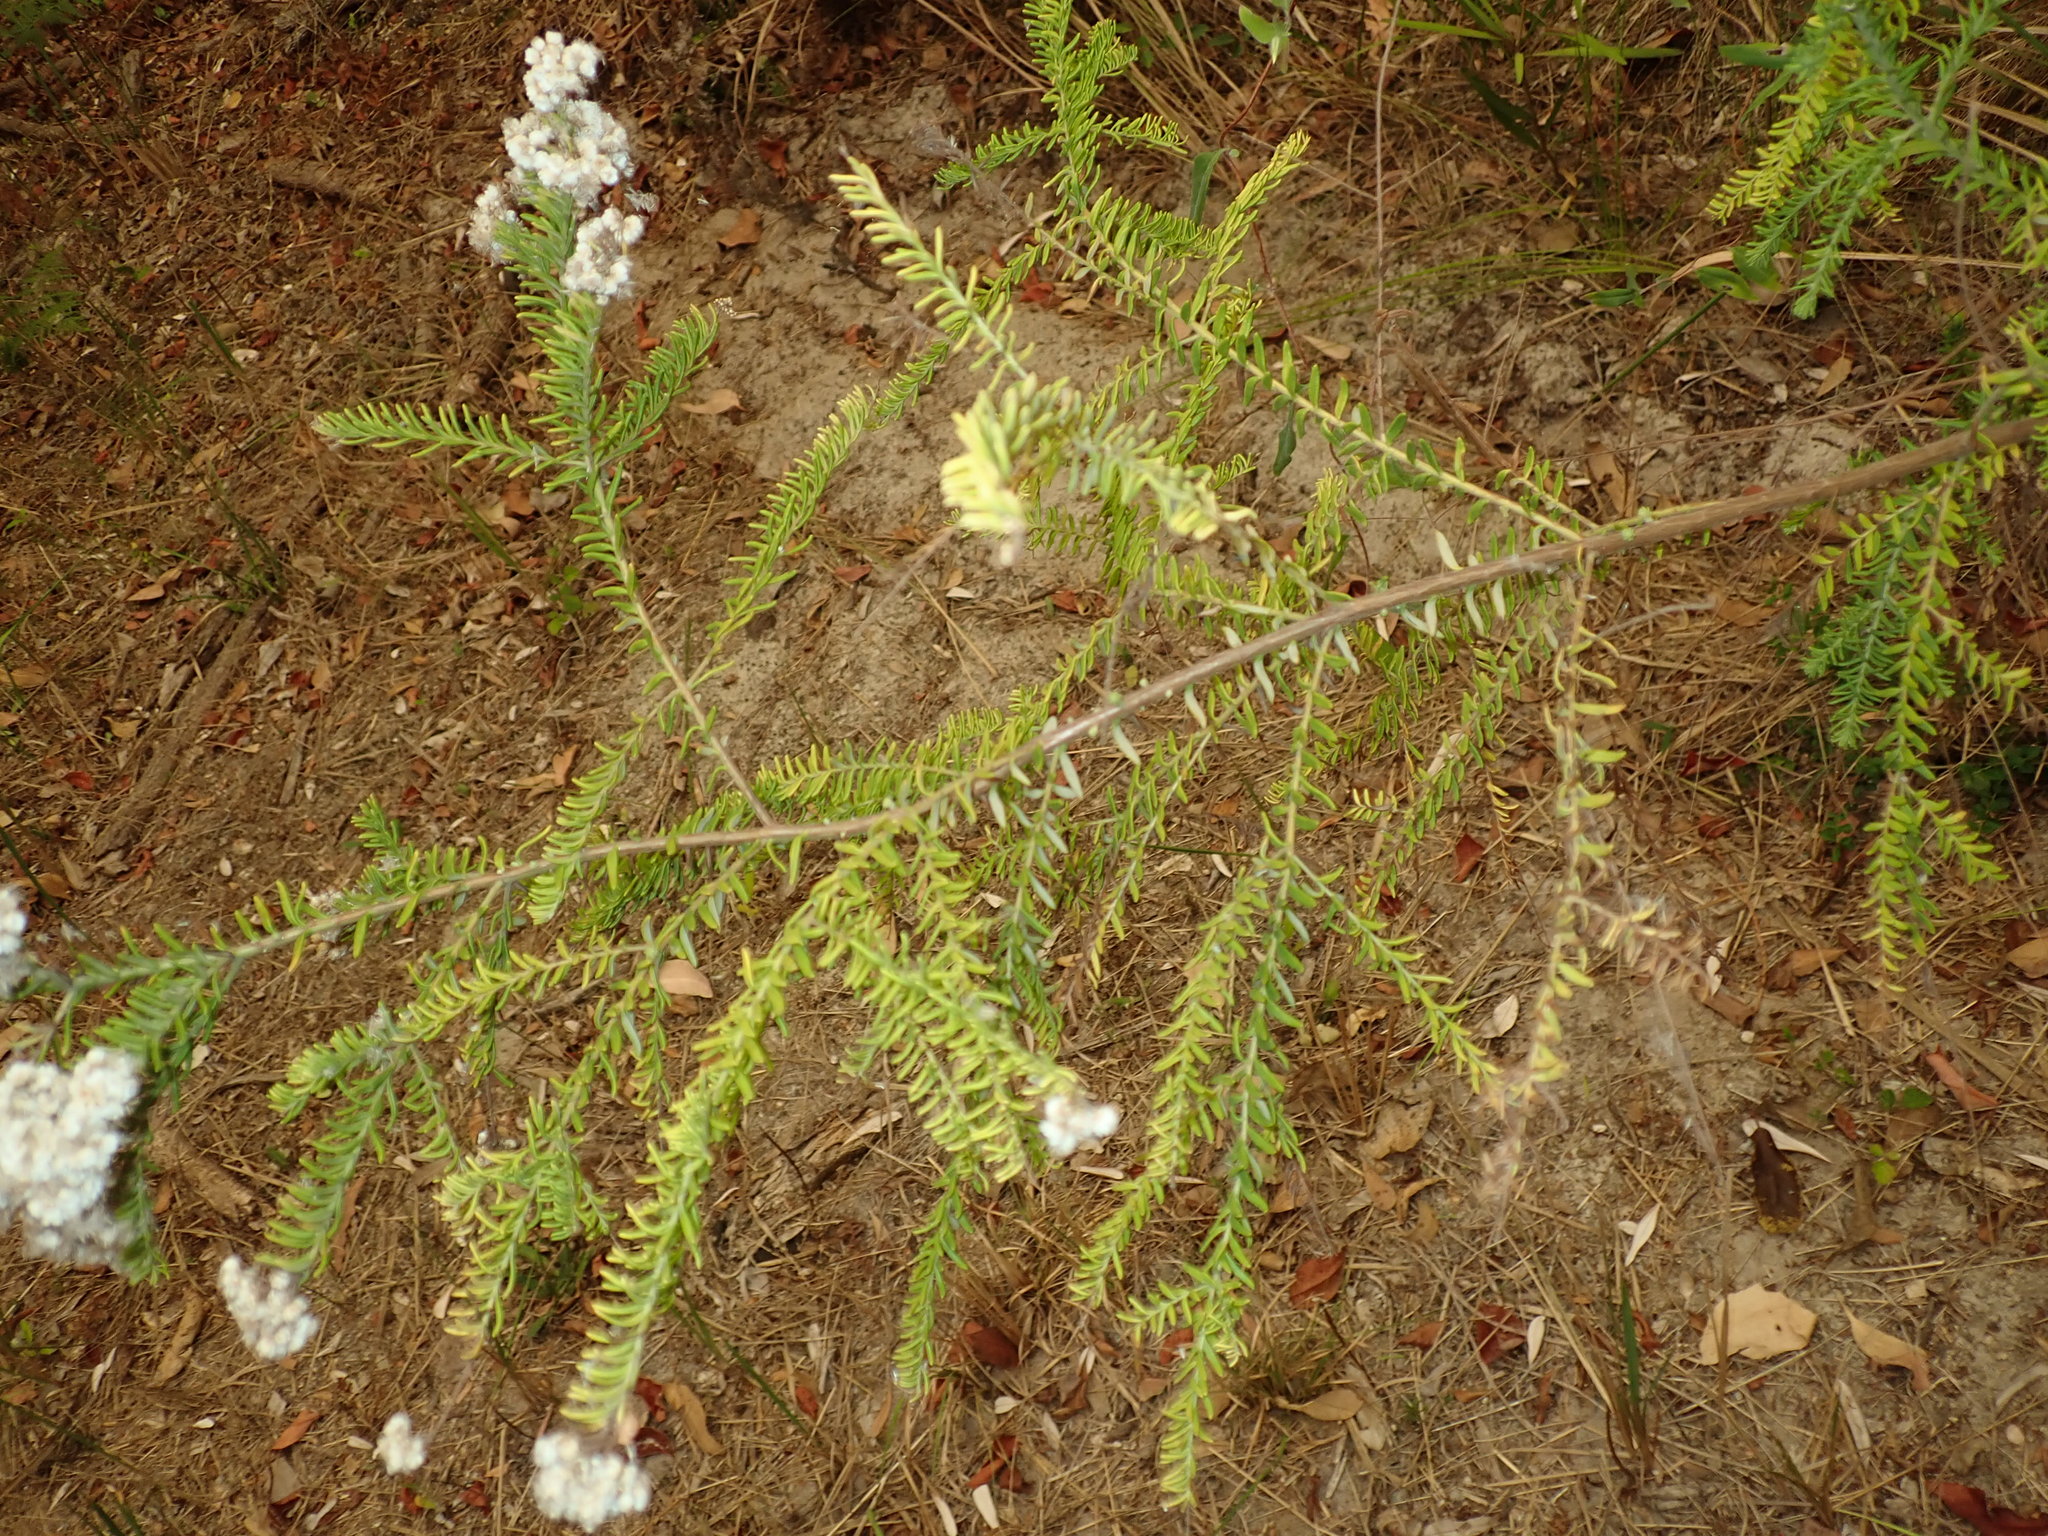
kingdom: Plantae
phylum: Tracheophyta
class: Magnoliopsida
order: Asterales
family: Asteraceae
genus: Ozothamnus
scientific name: Ozothamnus diosmifolius
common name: White-dogwood
